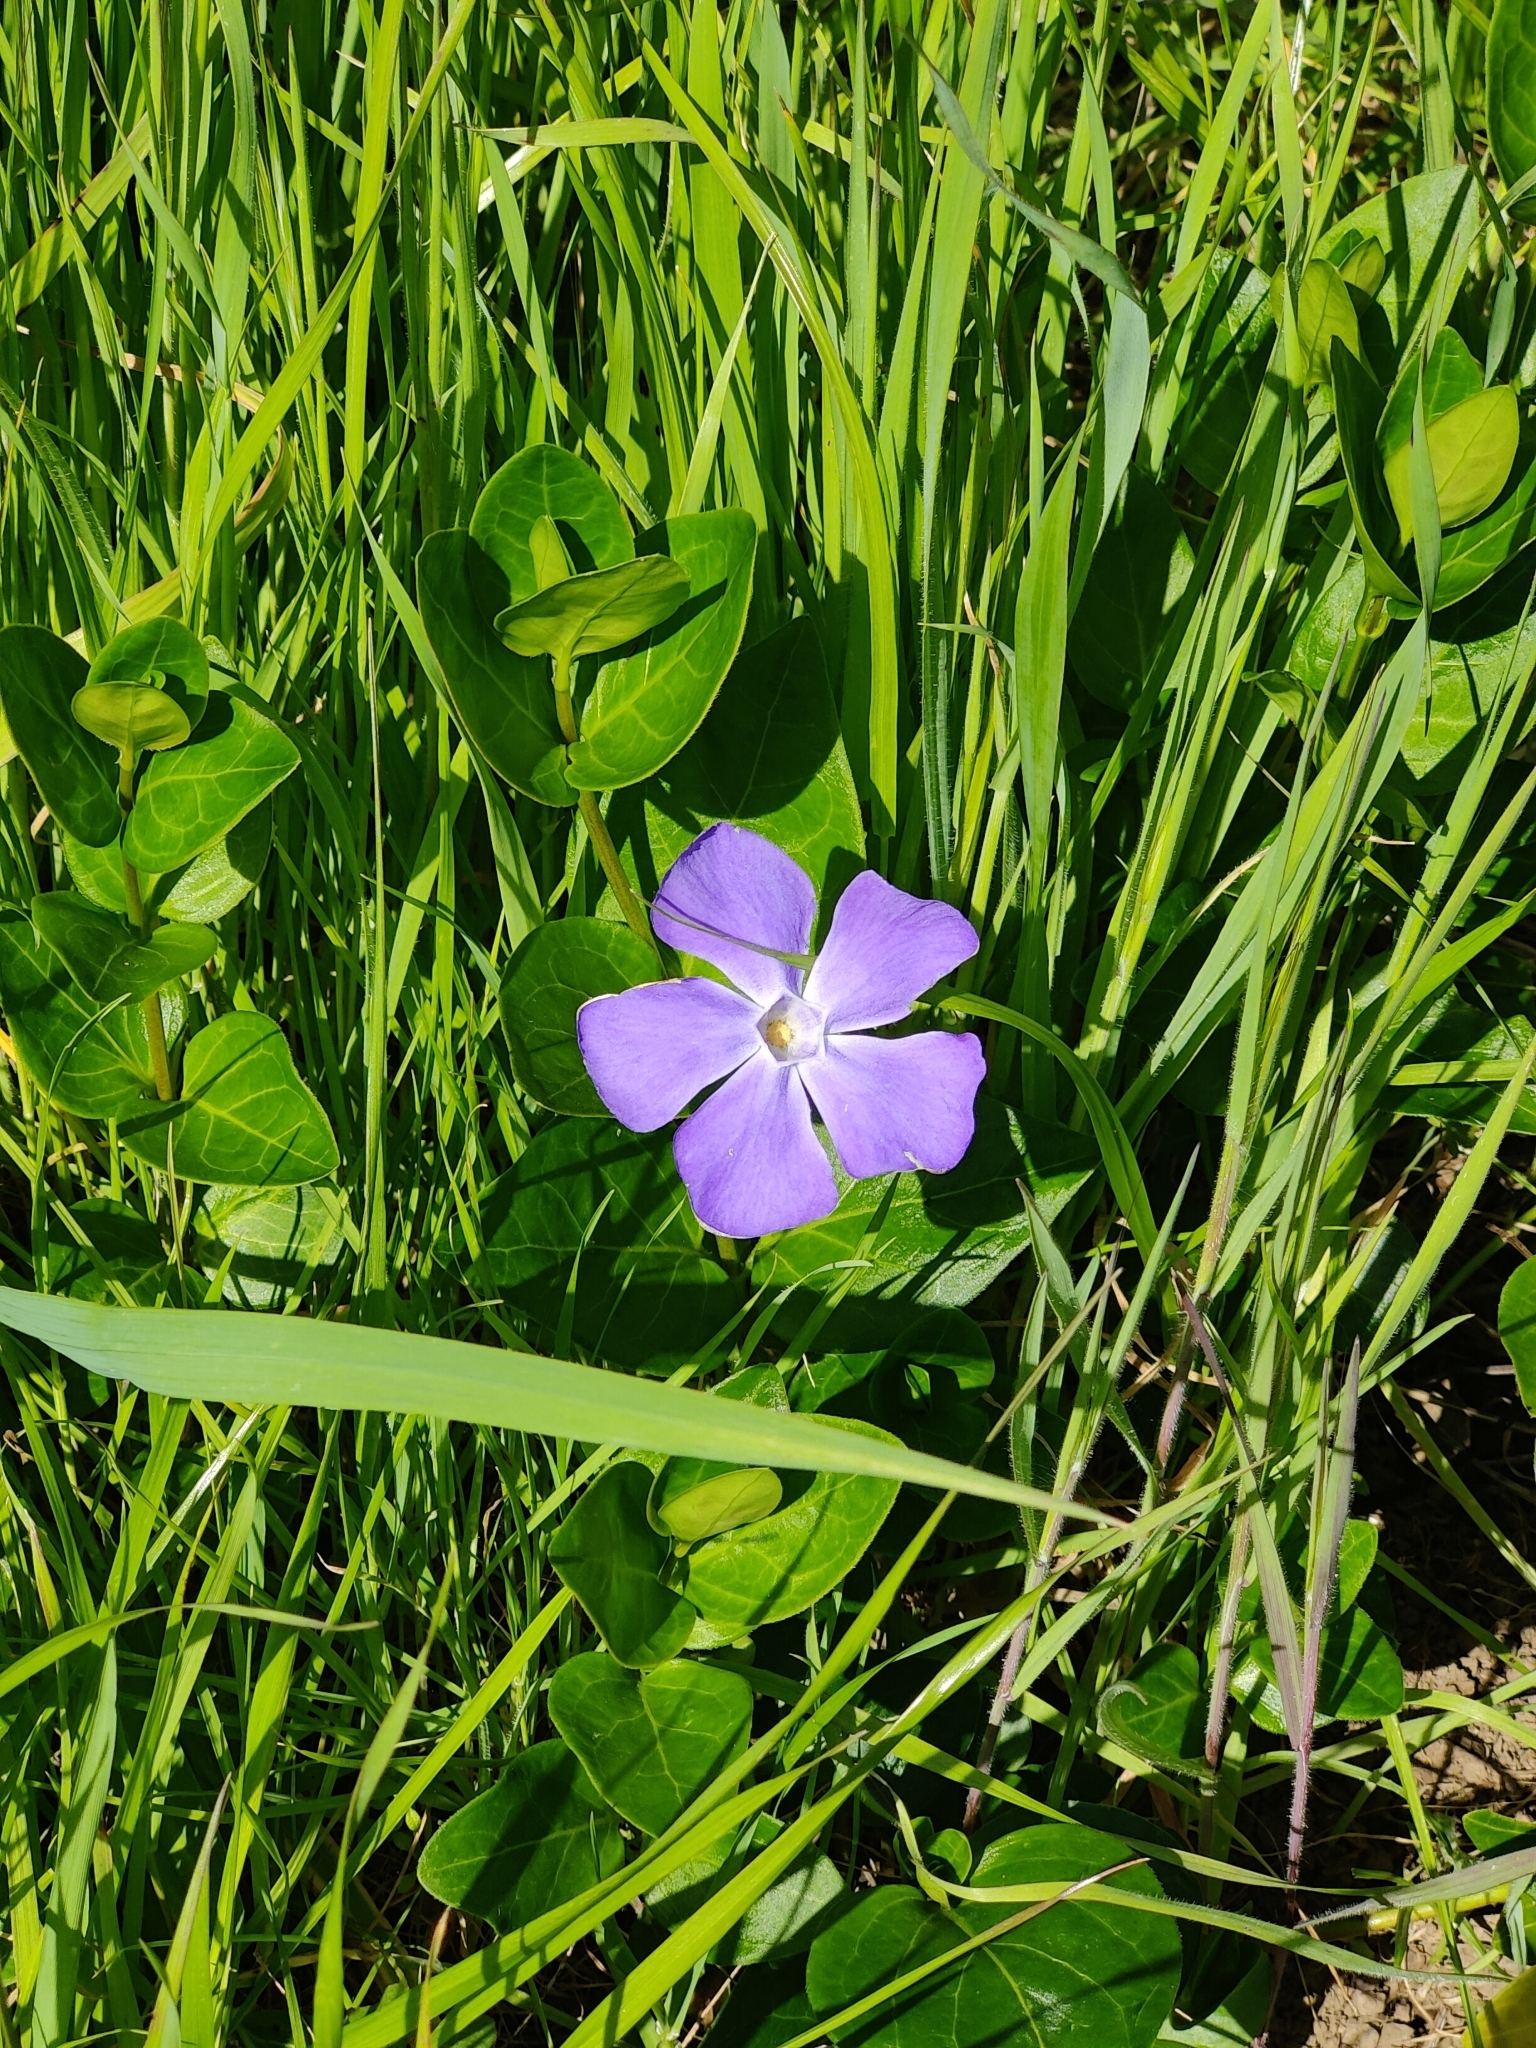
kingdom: Plantae
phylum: Tracheophyta
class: Magnoliopsida
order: Gentianales
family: Apocynaceae
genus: Vinca
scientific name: Vinca major
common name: Greater periwinkle
